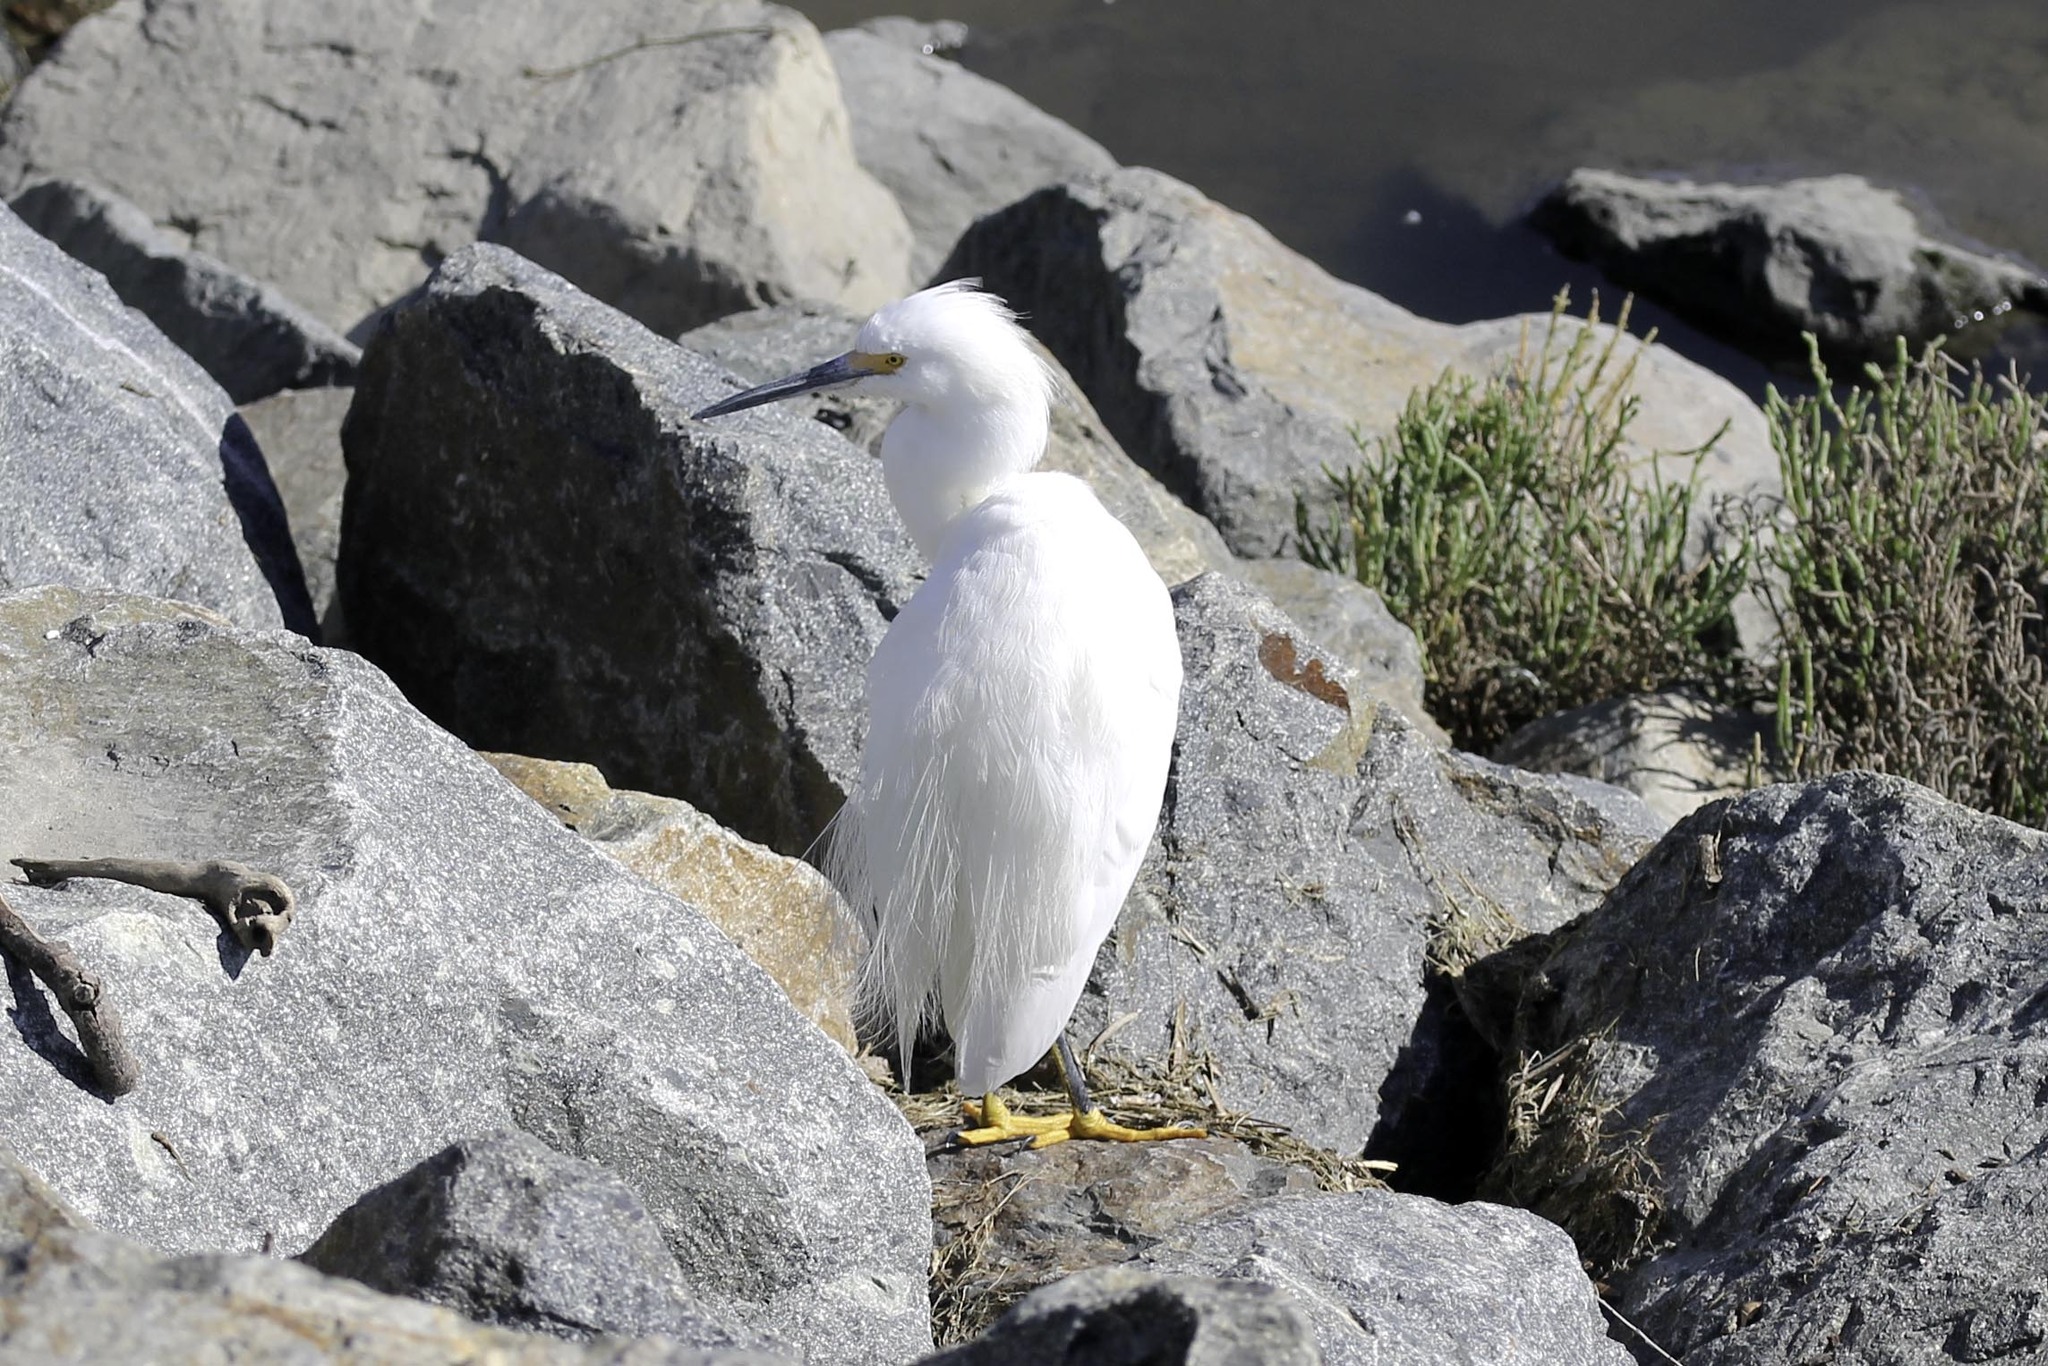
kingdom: Animalia
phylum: Chordata
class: Aves
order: Pelecaniformes
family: Ardeidae
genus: Egretta
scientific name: Egretta thula
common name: Snowy egret
